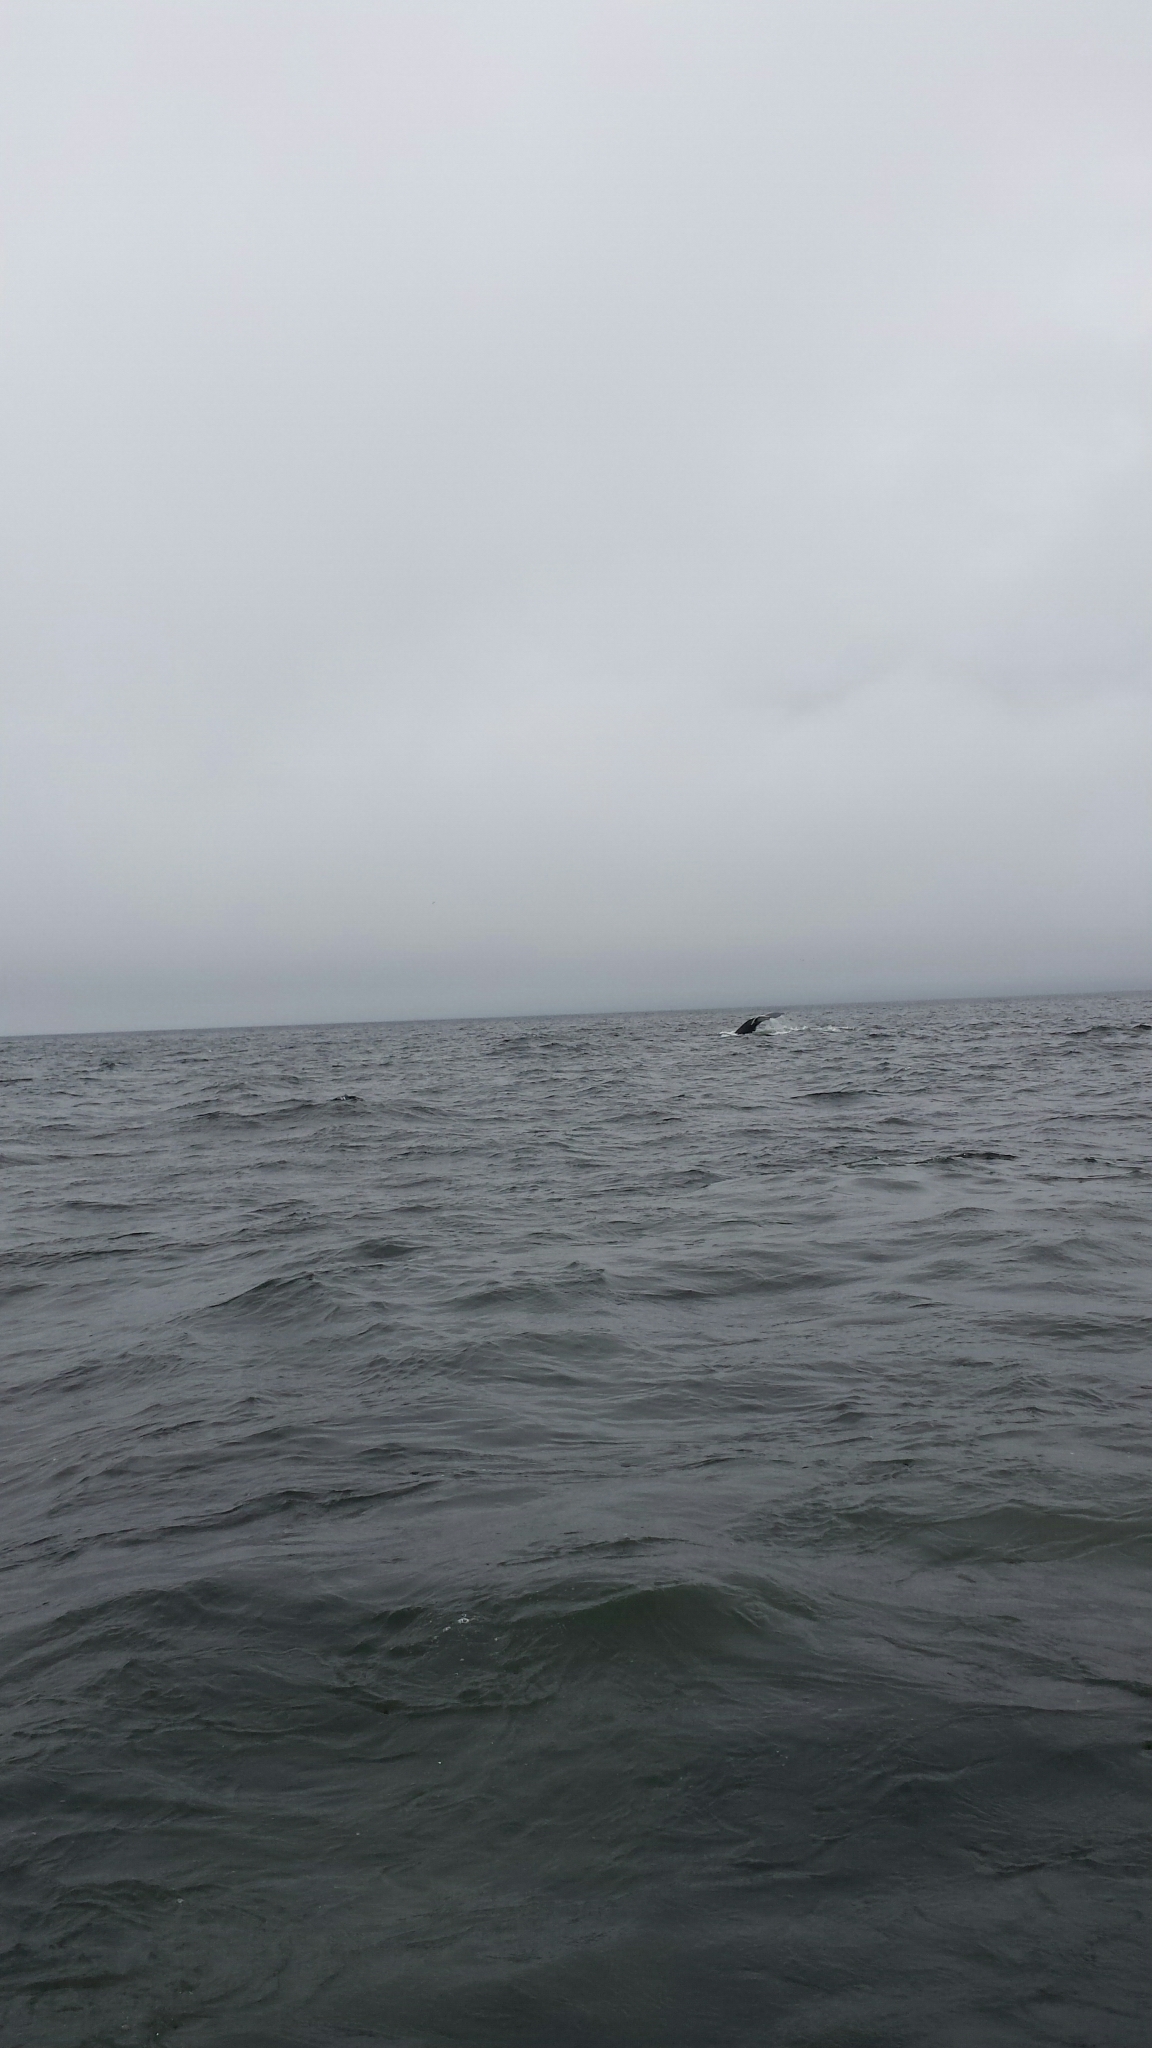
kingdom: Animalia
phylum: Chordata
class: Mammalia
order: Cetacea
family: Balaenopteridae
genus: Megaptera
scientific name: Megaptera novaeangliae
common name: Humpback whale
